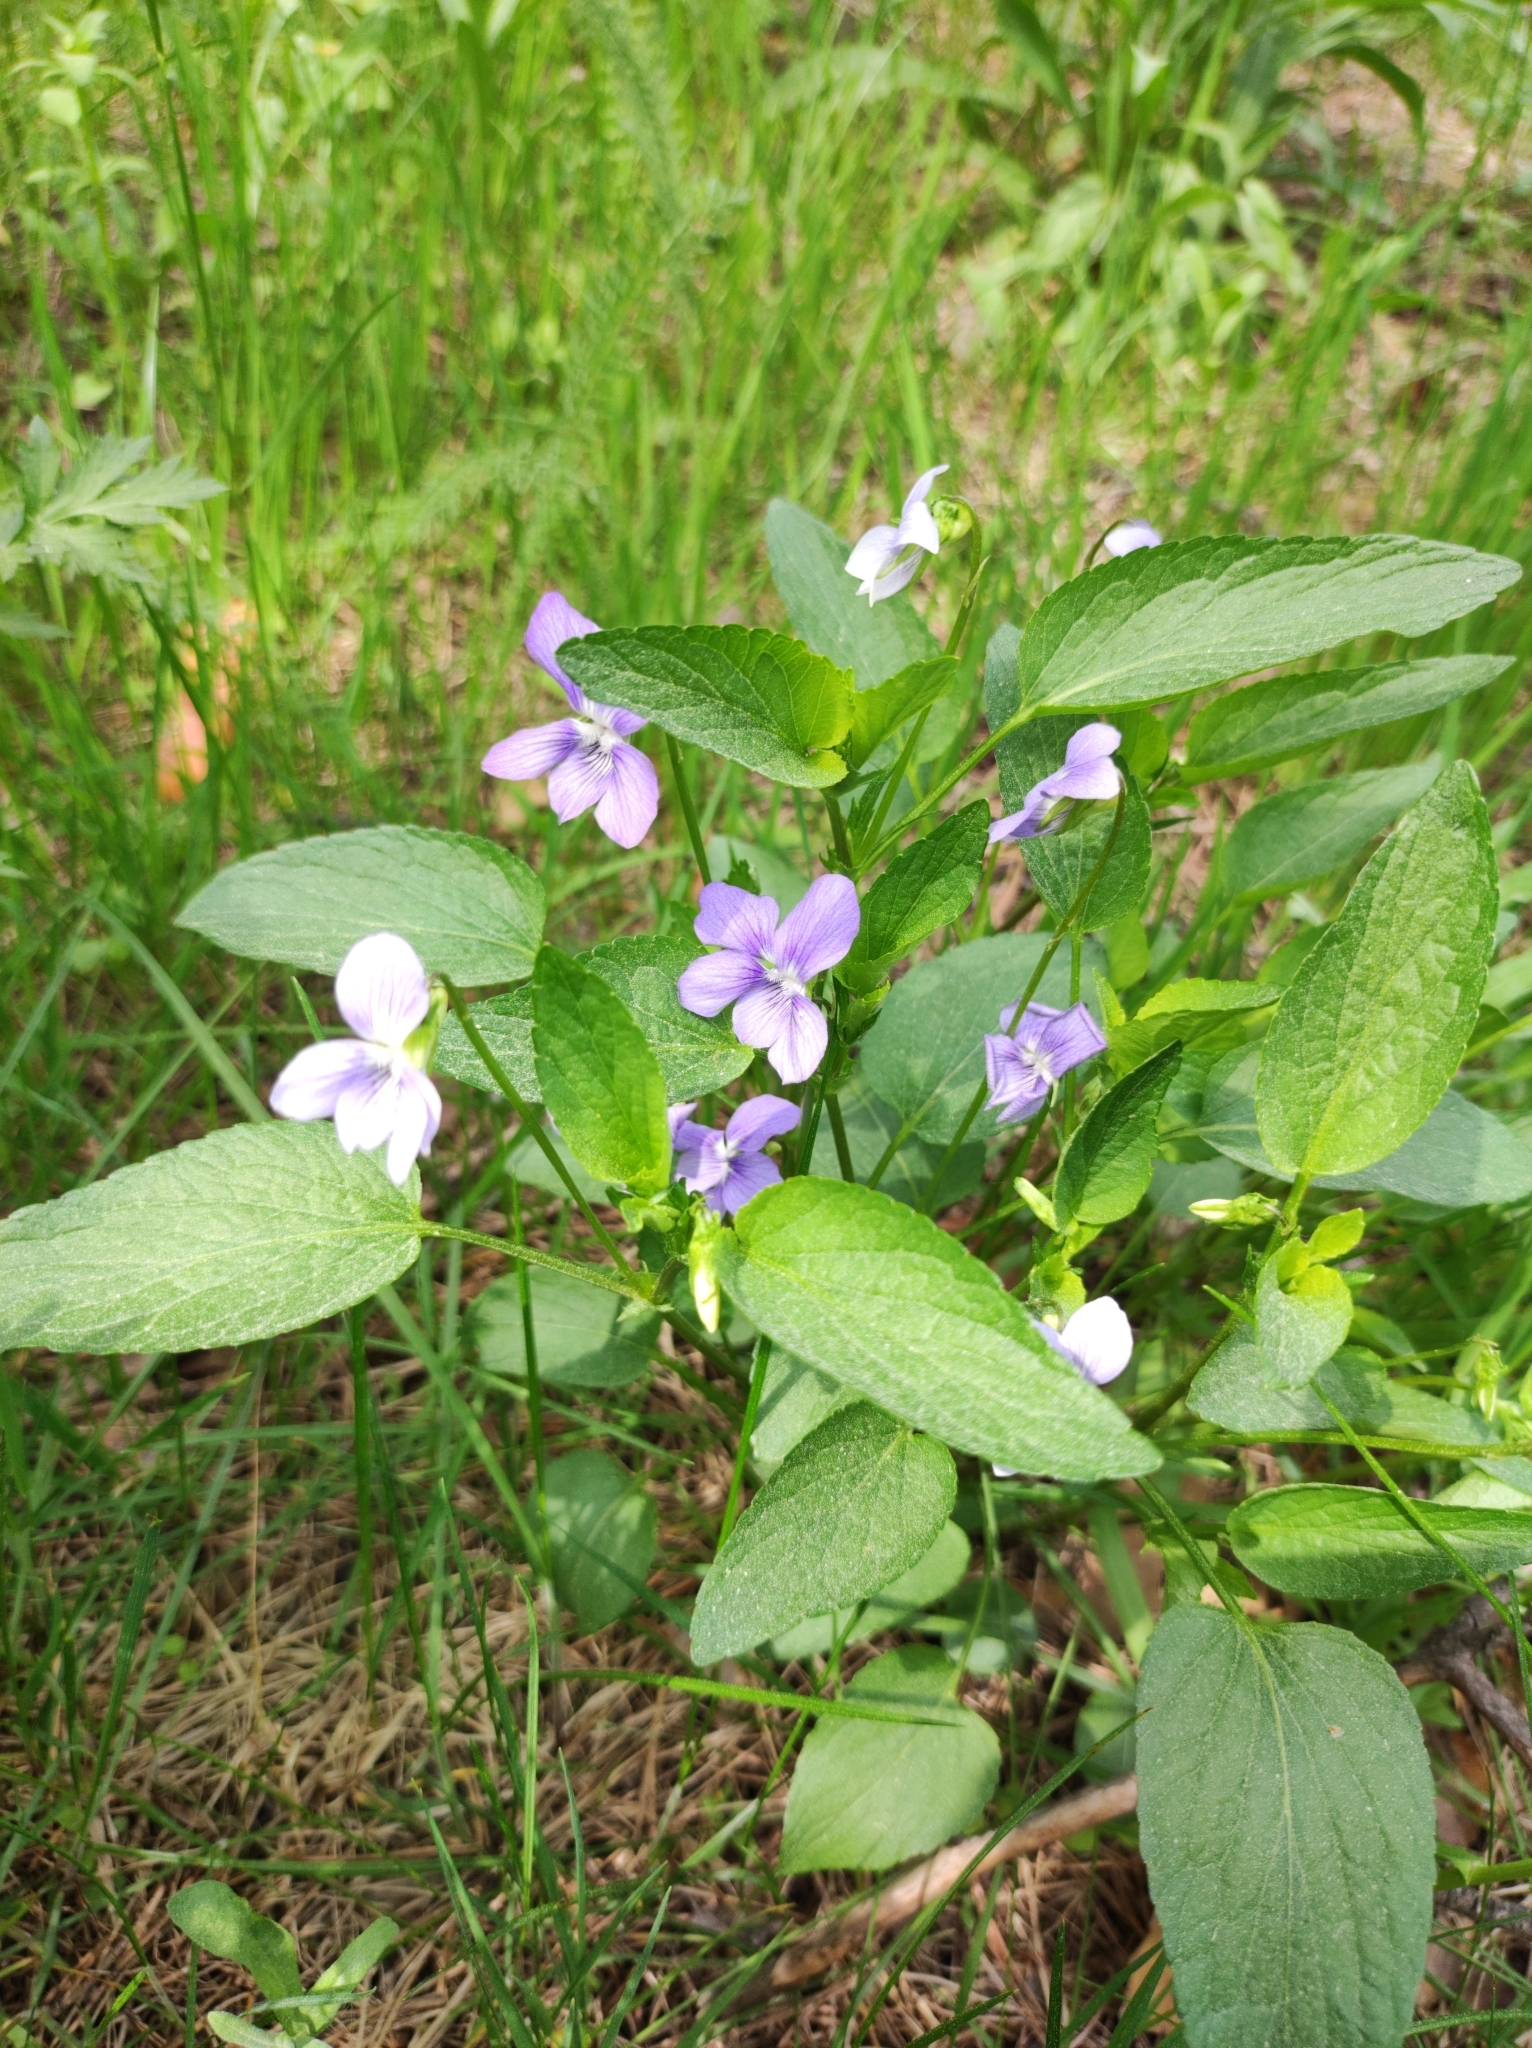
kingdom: Plantae
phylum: Tracheophyta
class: Magnoliopsida
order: Malpighiales
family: Violaceae
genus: Viola
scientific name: Viola canina
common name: Heath dog-violet
